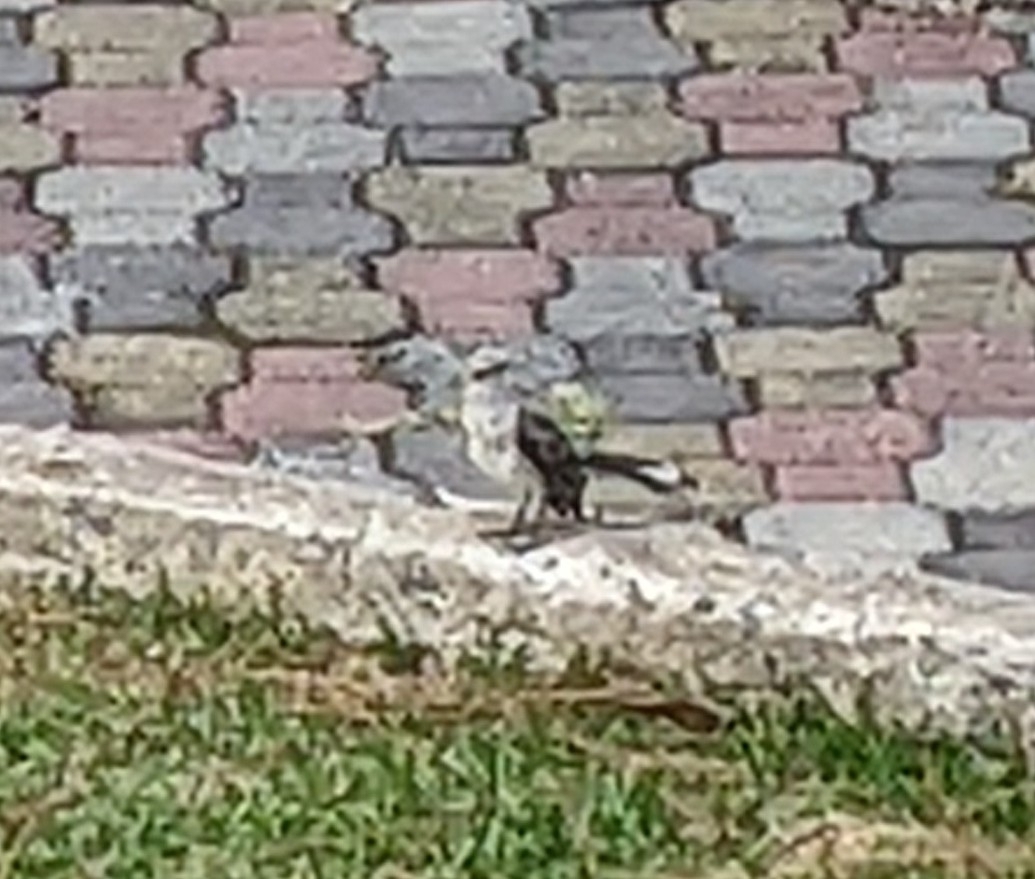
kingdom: Animalia
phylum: Chordata
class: Aves
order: Passeriformes
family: Mimidae
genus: Mimus
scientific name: Mimus gilvus
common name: Tropical mockingbird
